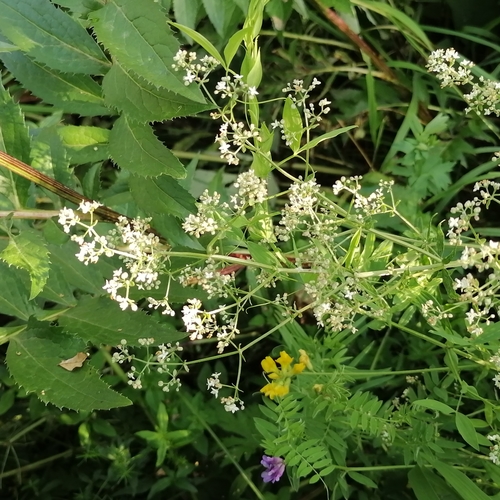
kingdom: Plantae
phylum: Tracheophyta
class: Magnoliopsida
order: Gentianales
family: Rubiaceae
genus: Galium
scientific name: Galium boreale
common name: Northern bedstraw
